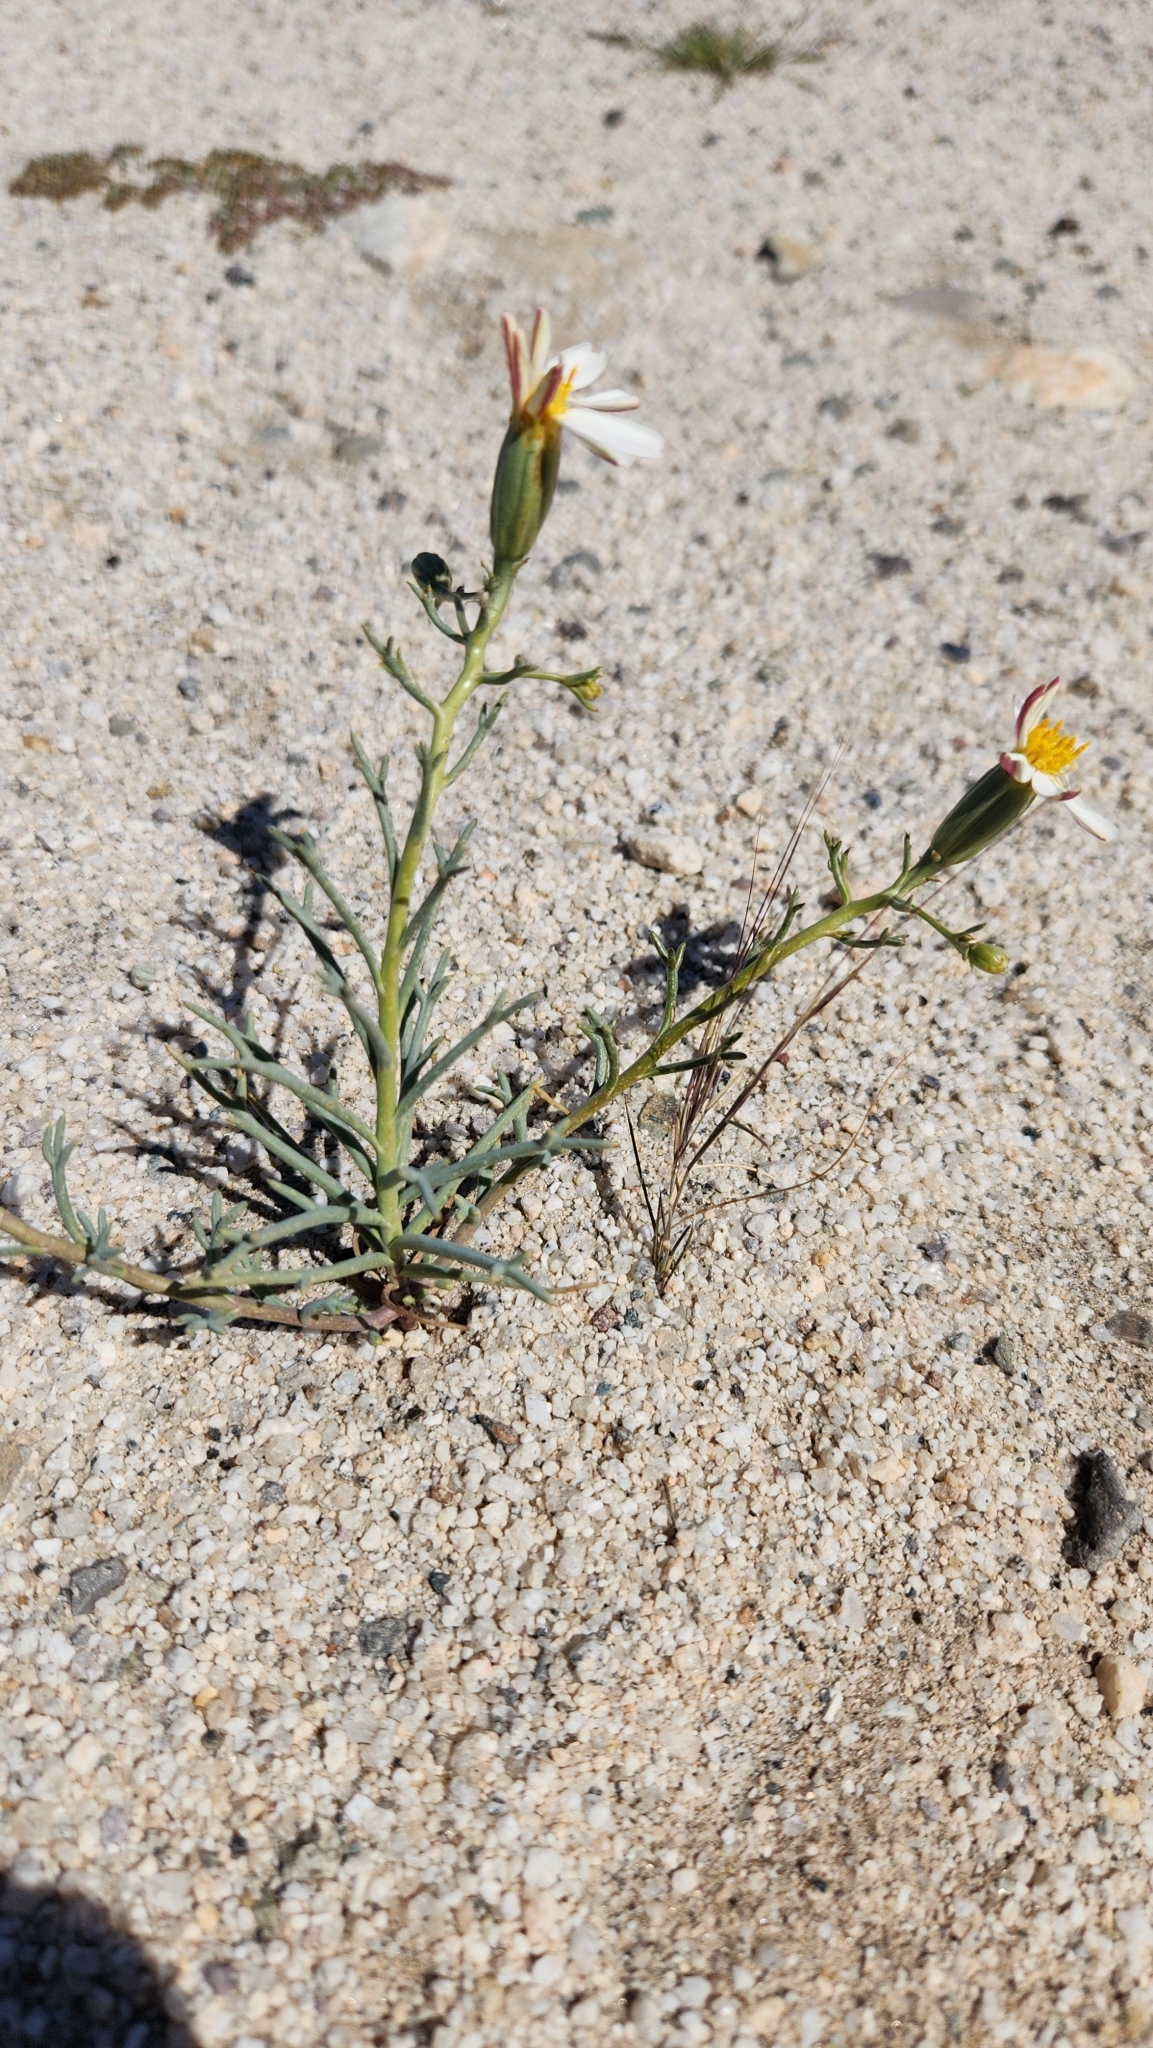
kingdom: Plantae
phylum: Tracheophyta
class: Magnoliopsida
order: Asterales
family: Asteraceae
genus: Nicolletia
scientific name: Nicolletia trifida
